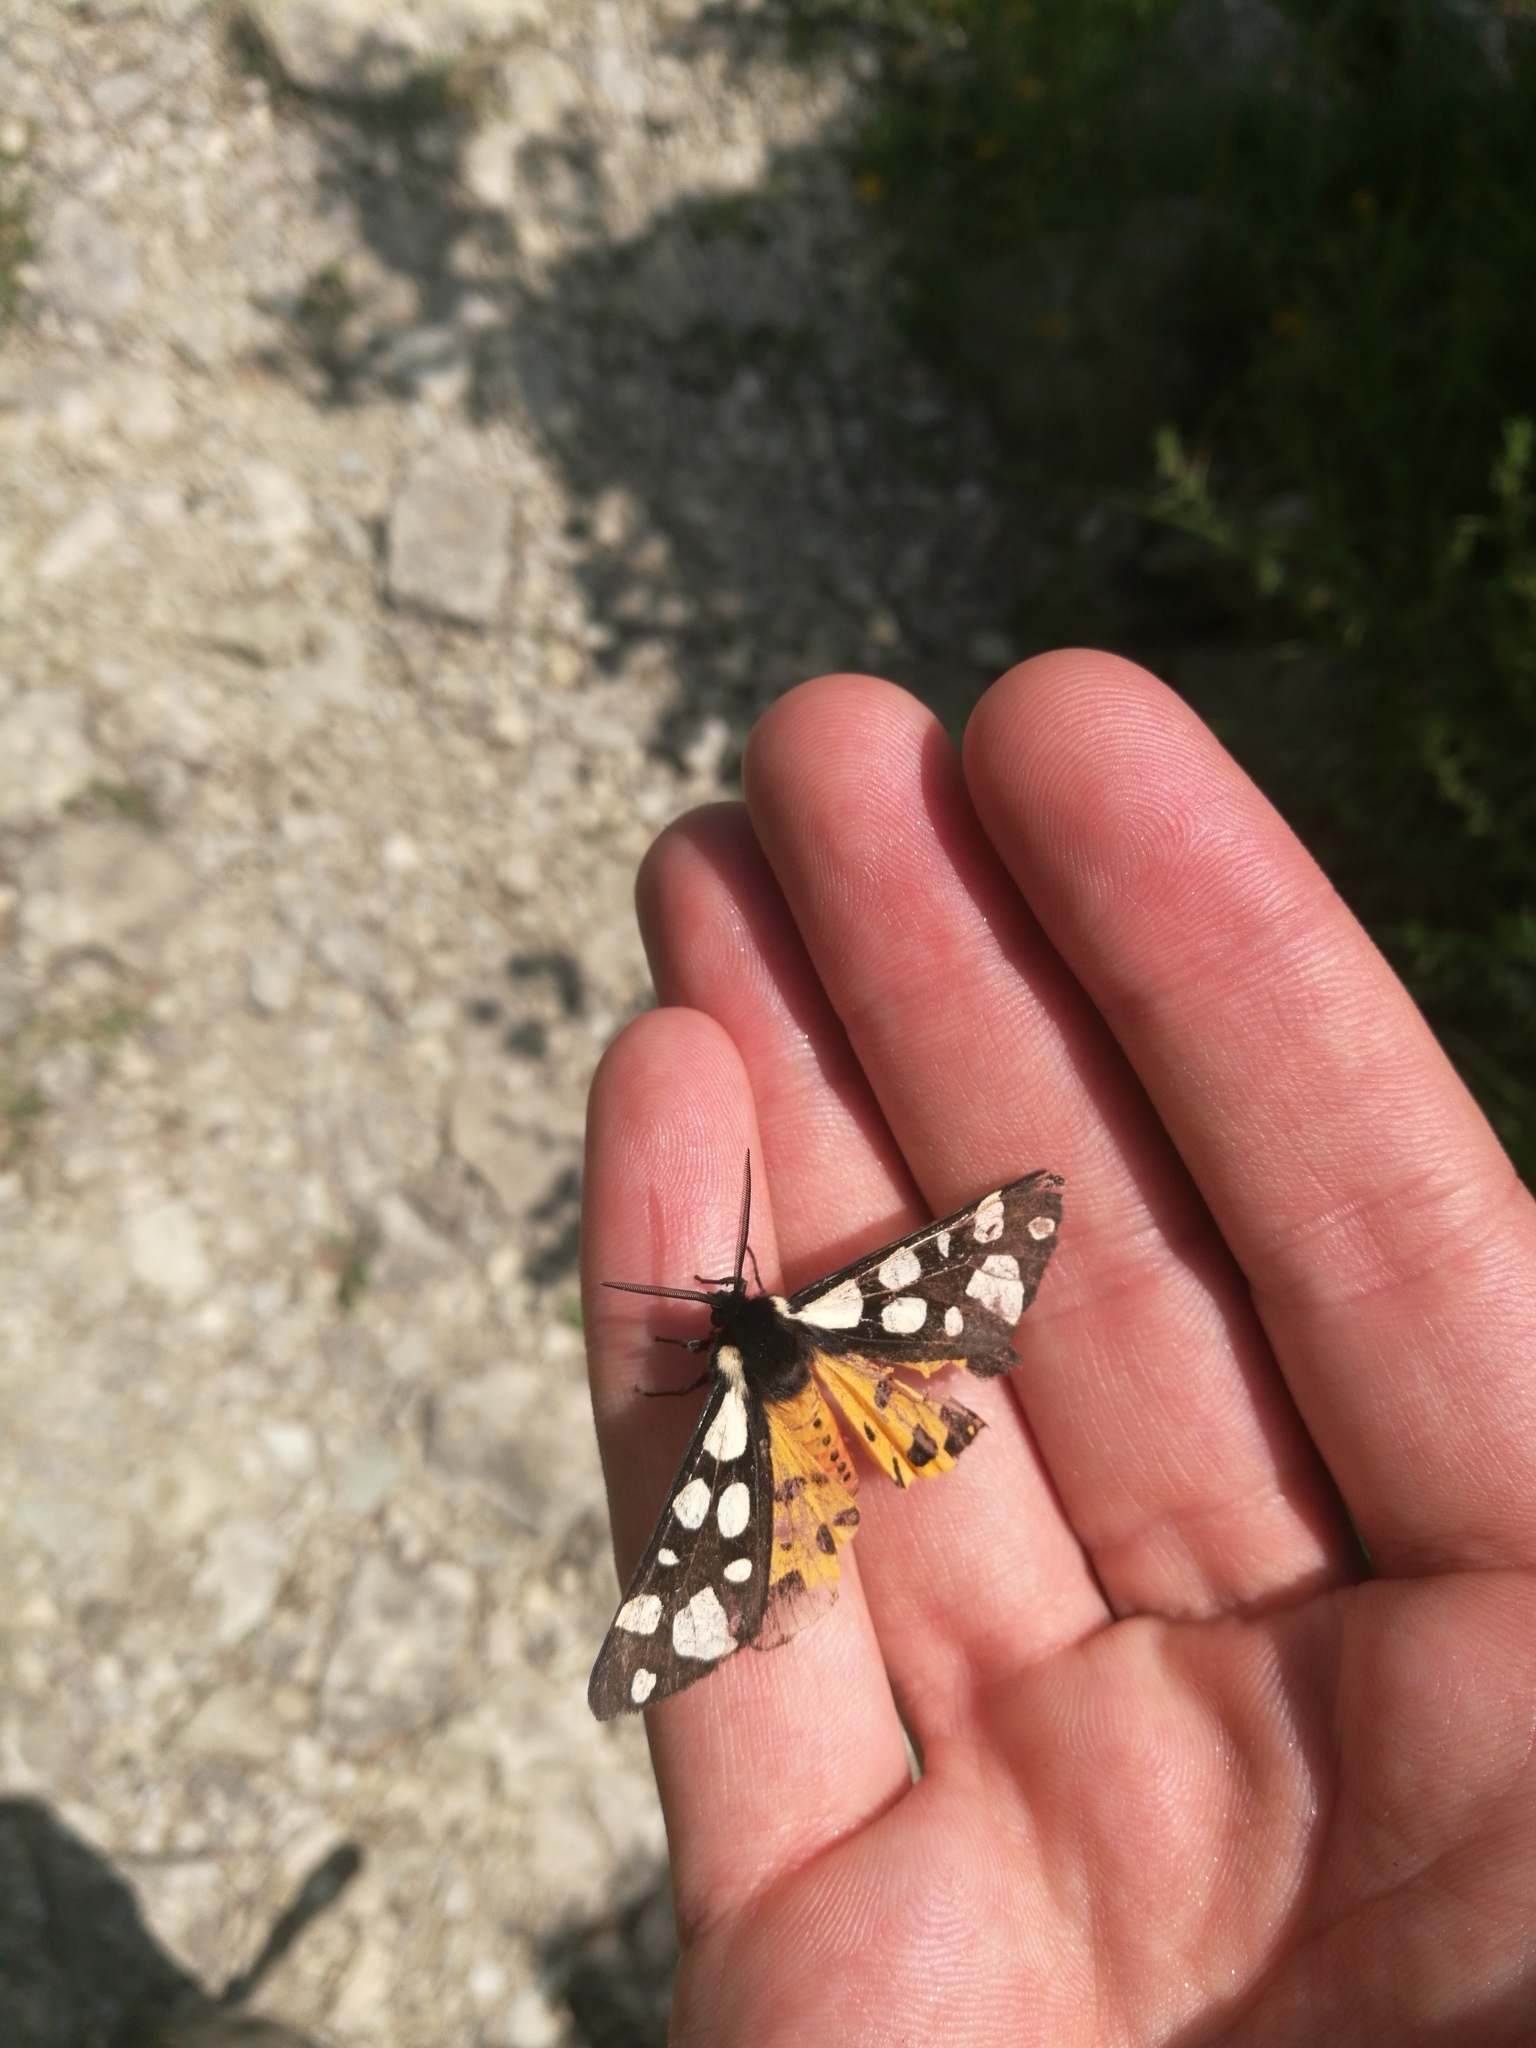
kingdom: Animalia
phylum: Arthropoda
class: Insecta
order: Lepidoptera
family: Erebidae
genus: Epicallia
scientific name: Epicallia villica
